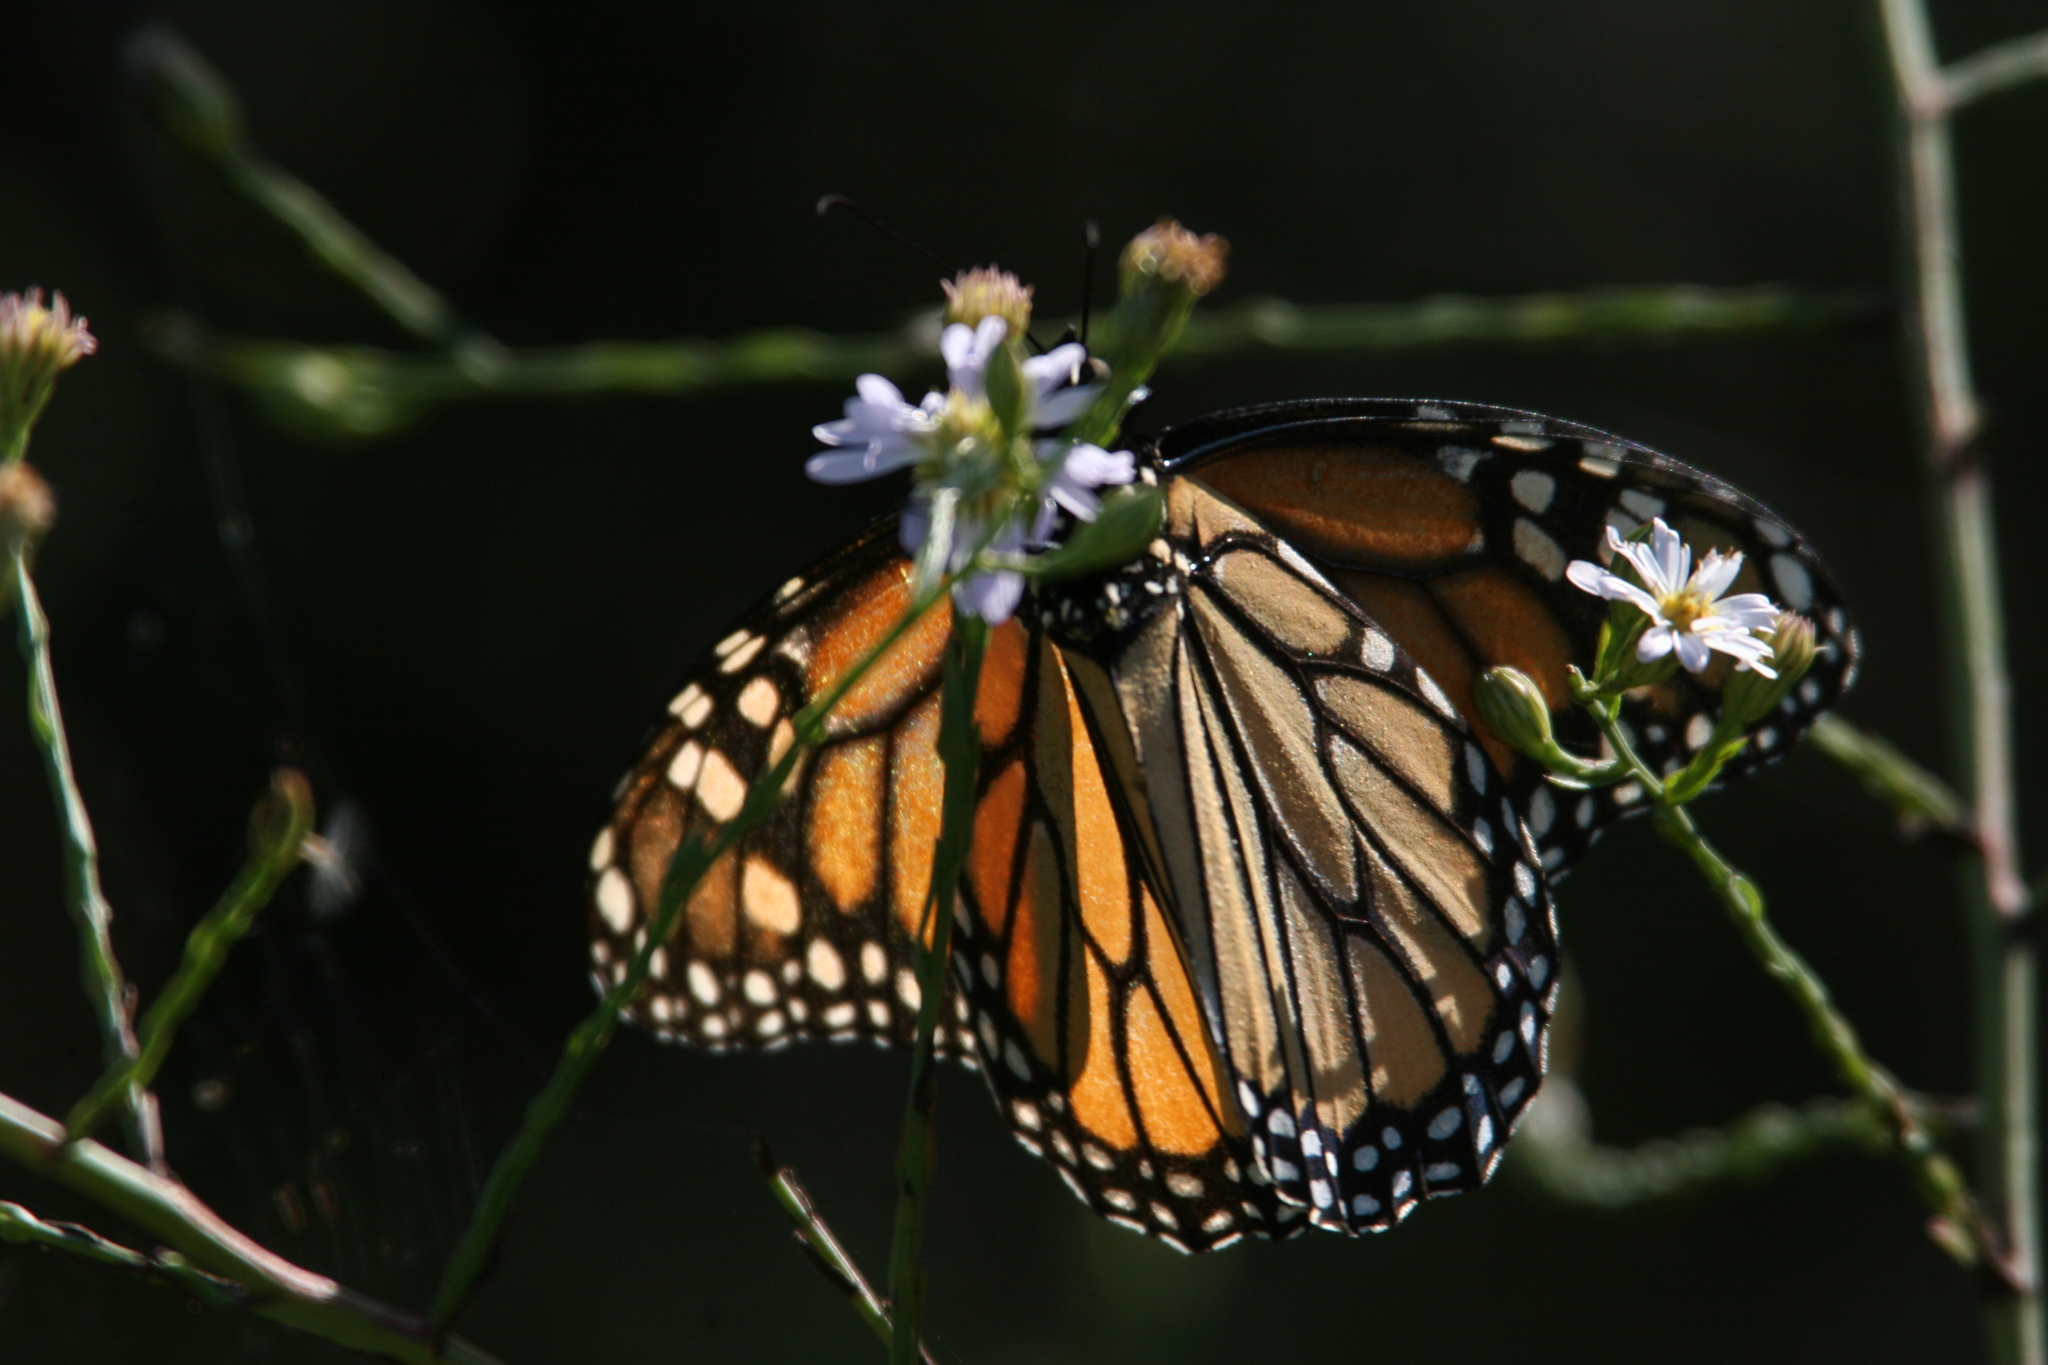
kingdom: Animalia
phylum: Arthropoda
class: Insecta
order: Lepidoptera
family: Nymphalidae
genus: Danaus
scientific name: Danaus plexippus
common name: Monarch
